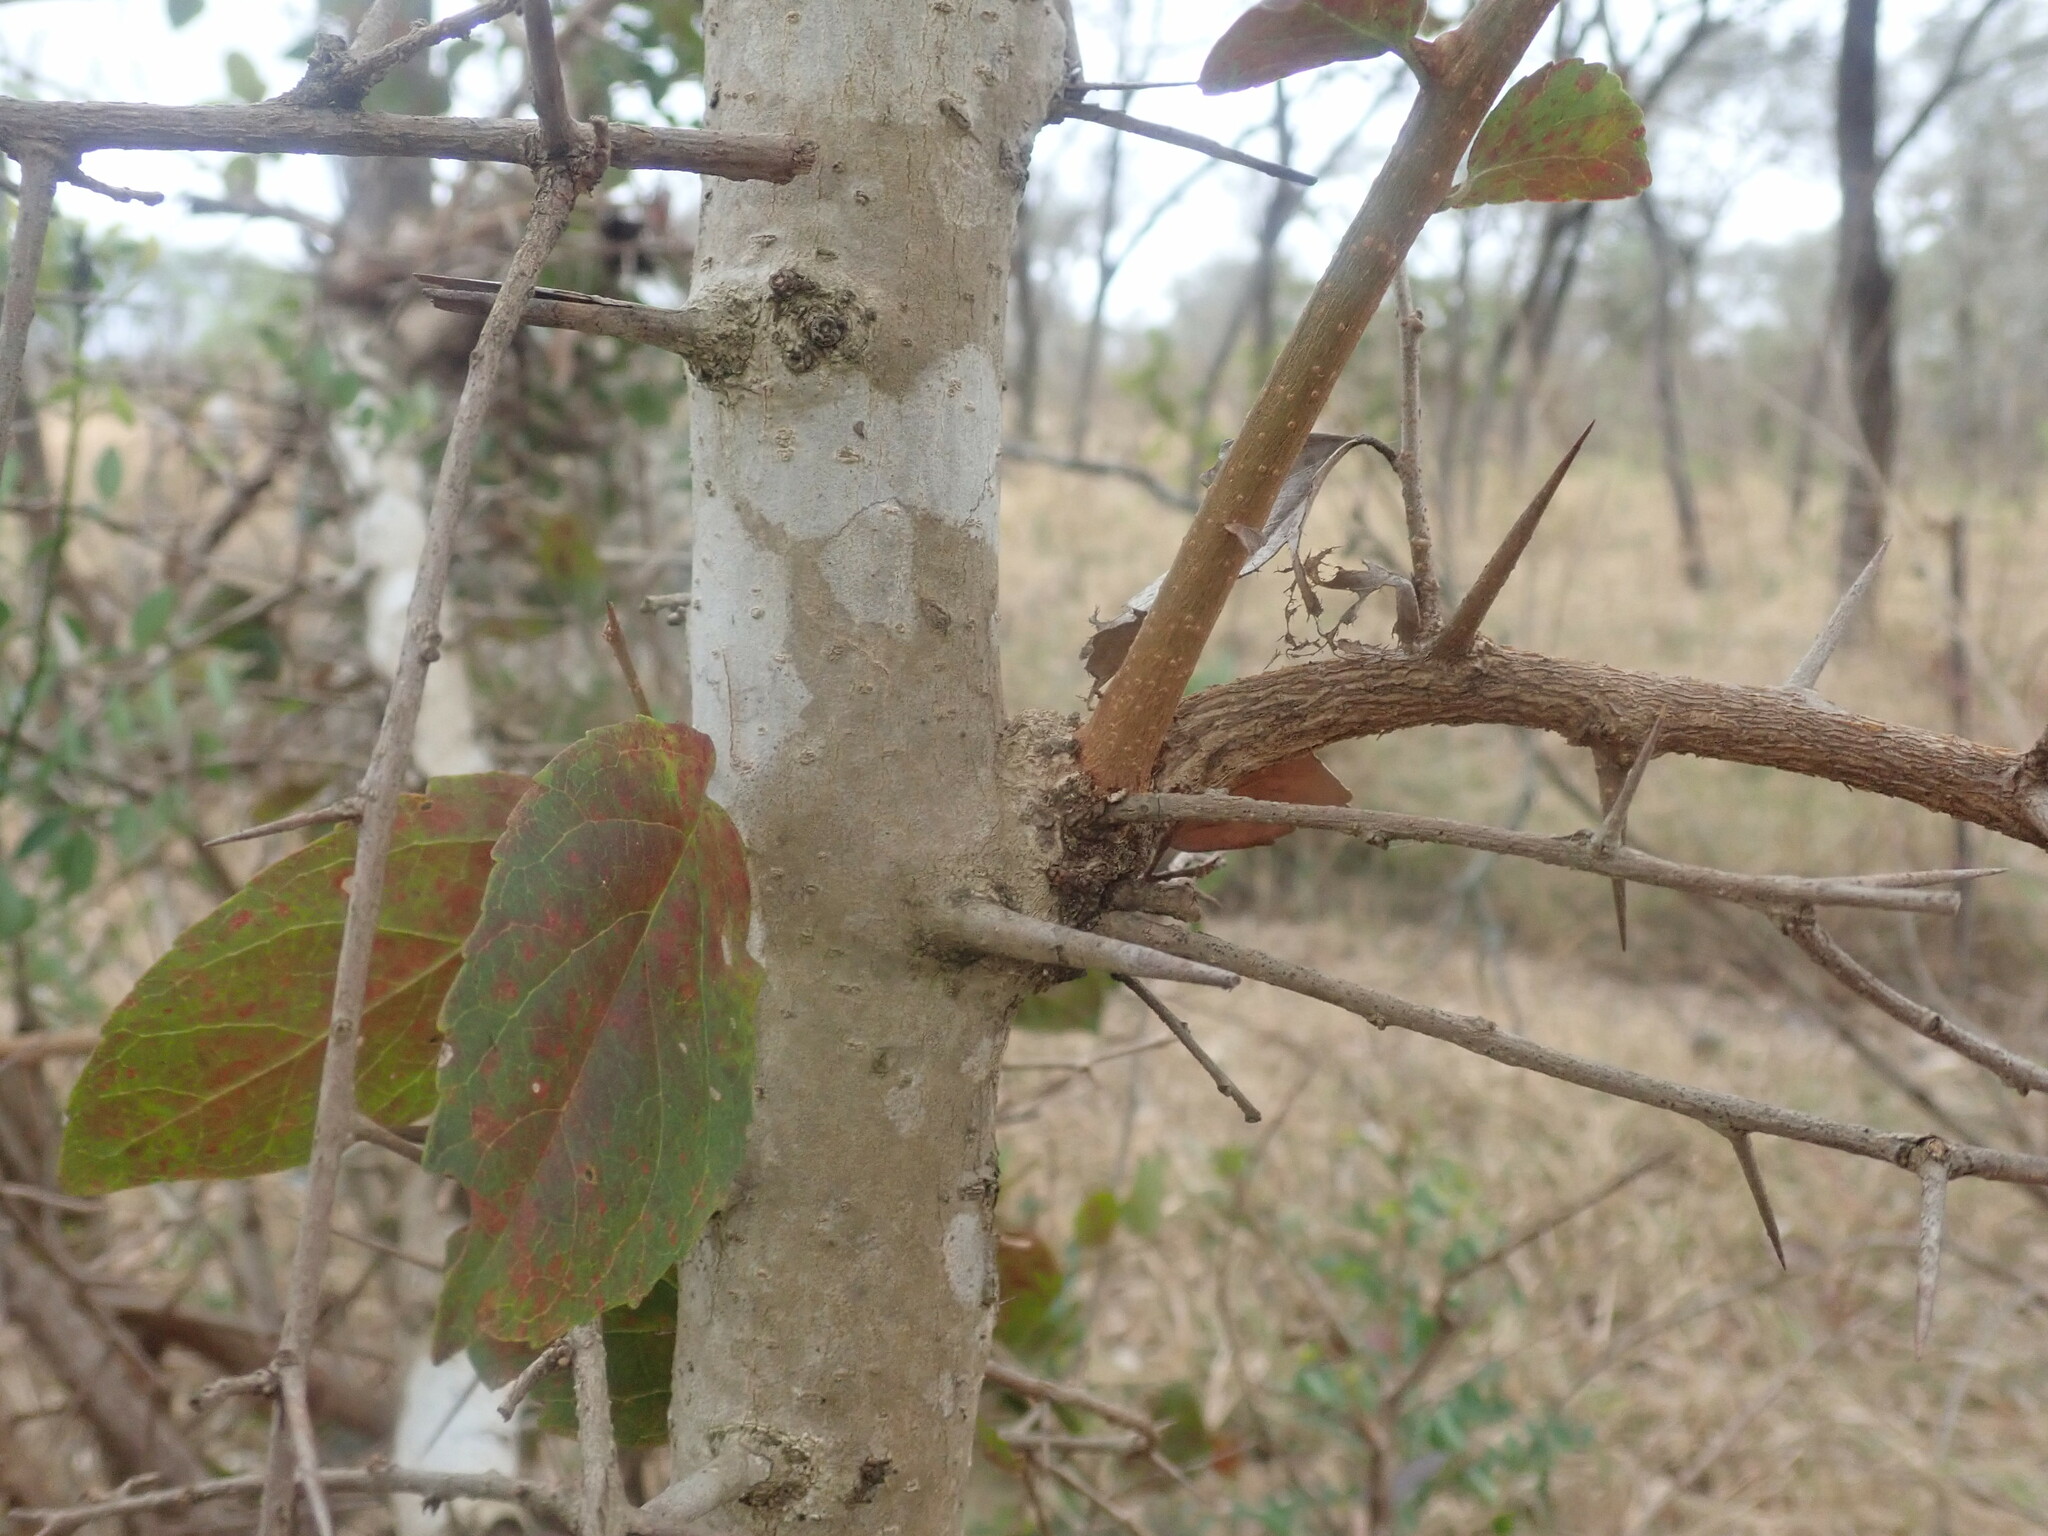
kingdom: Plantae
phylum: Tracheophyta
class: Magnoliopsida
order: Malpighiales
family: Salicaceae
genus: Flacourtia
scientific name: Flacourtia indica
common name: Governor's plum
